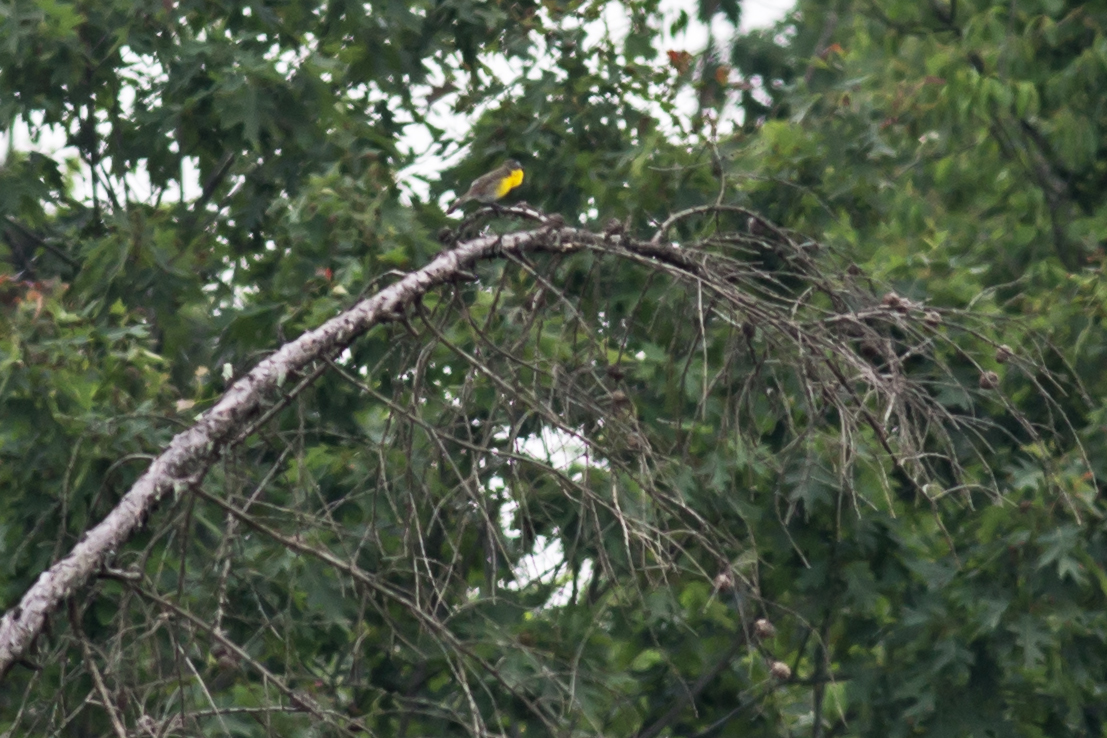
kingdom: Animalia
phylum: Chordata
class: Aves
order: Passeriformes
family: Parulidae
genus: Icteria
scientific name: Icteria virens
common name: Yellow-breasted chat
